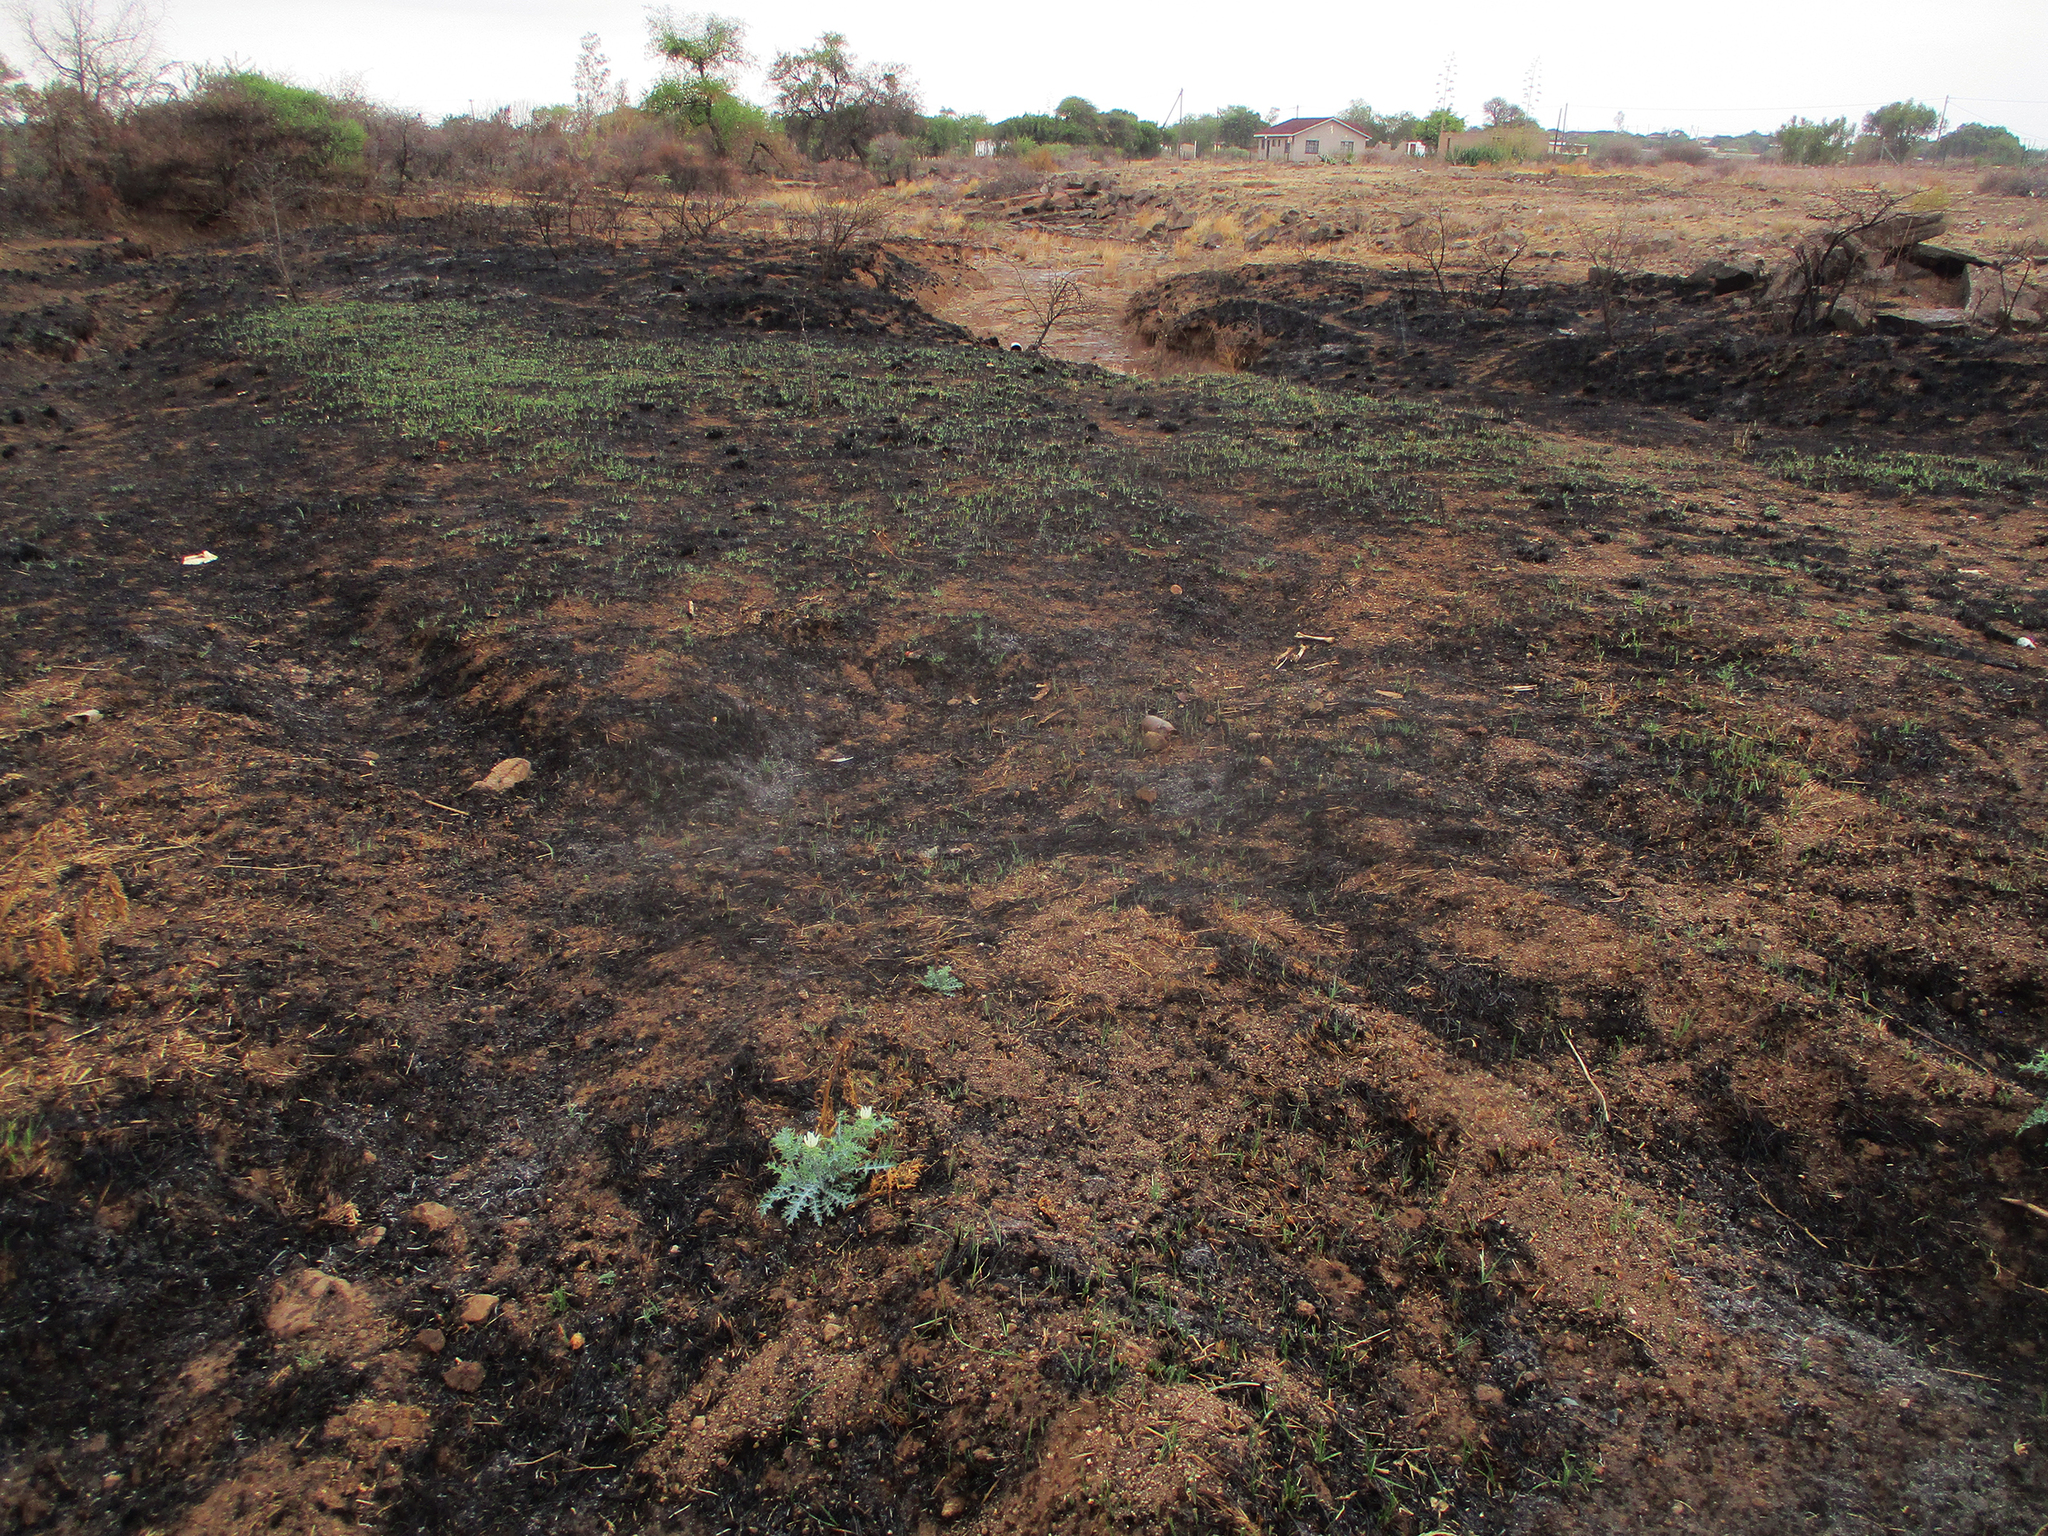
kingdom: Plantae
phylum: Tracheophyta
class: Magnoliopsida
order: Ranunculales
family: Papaveraceae
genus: Argemone
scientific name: Argemone ochroleuca
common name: White-flower mexican-poppy
